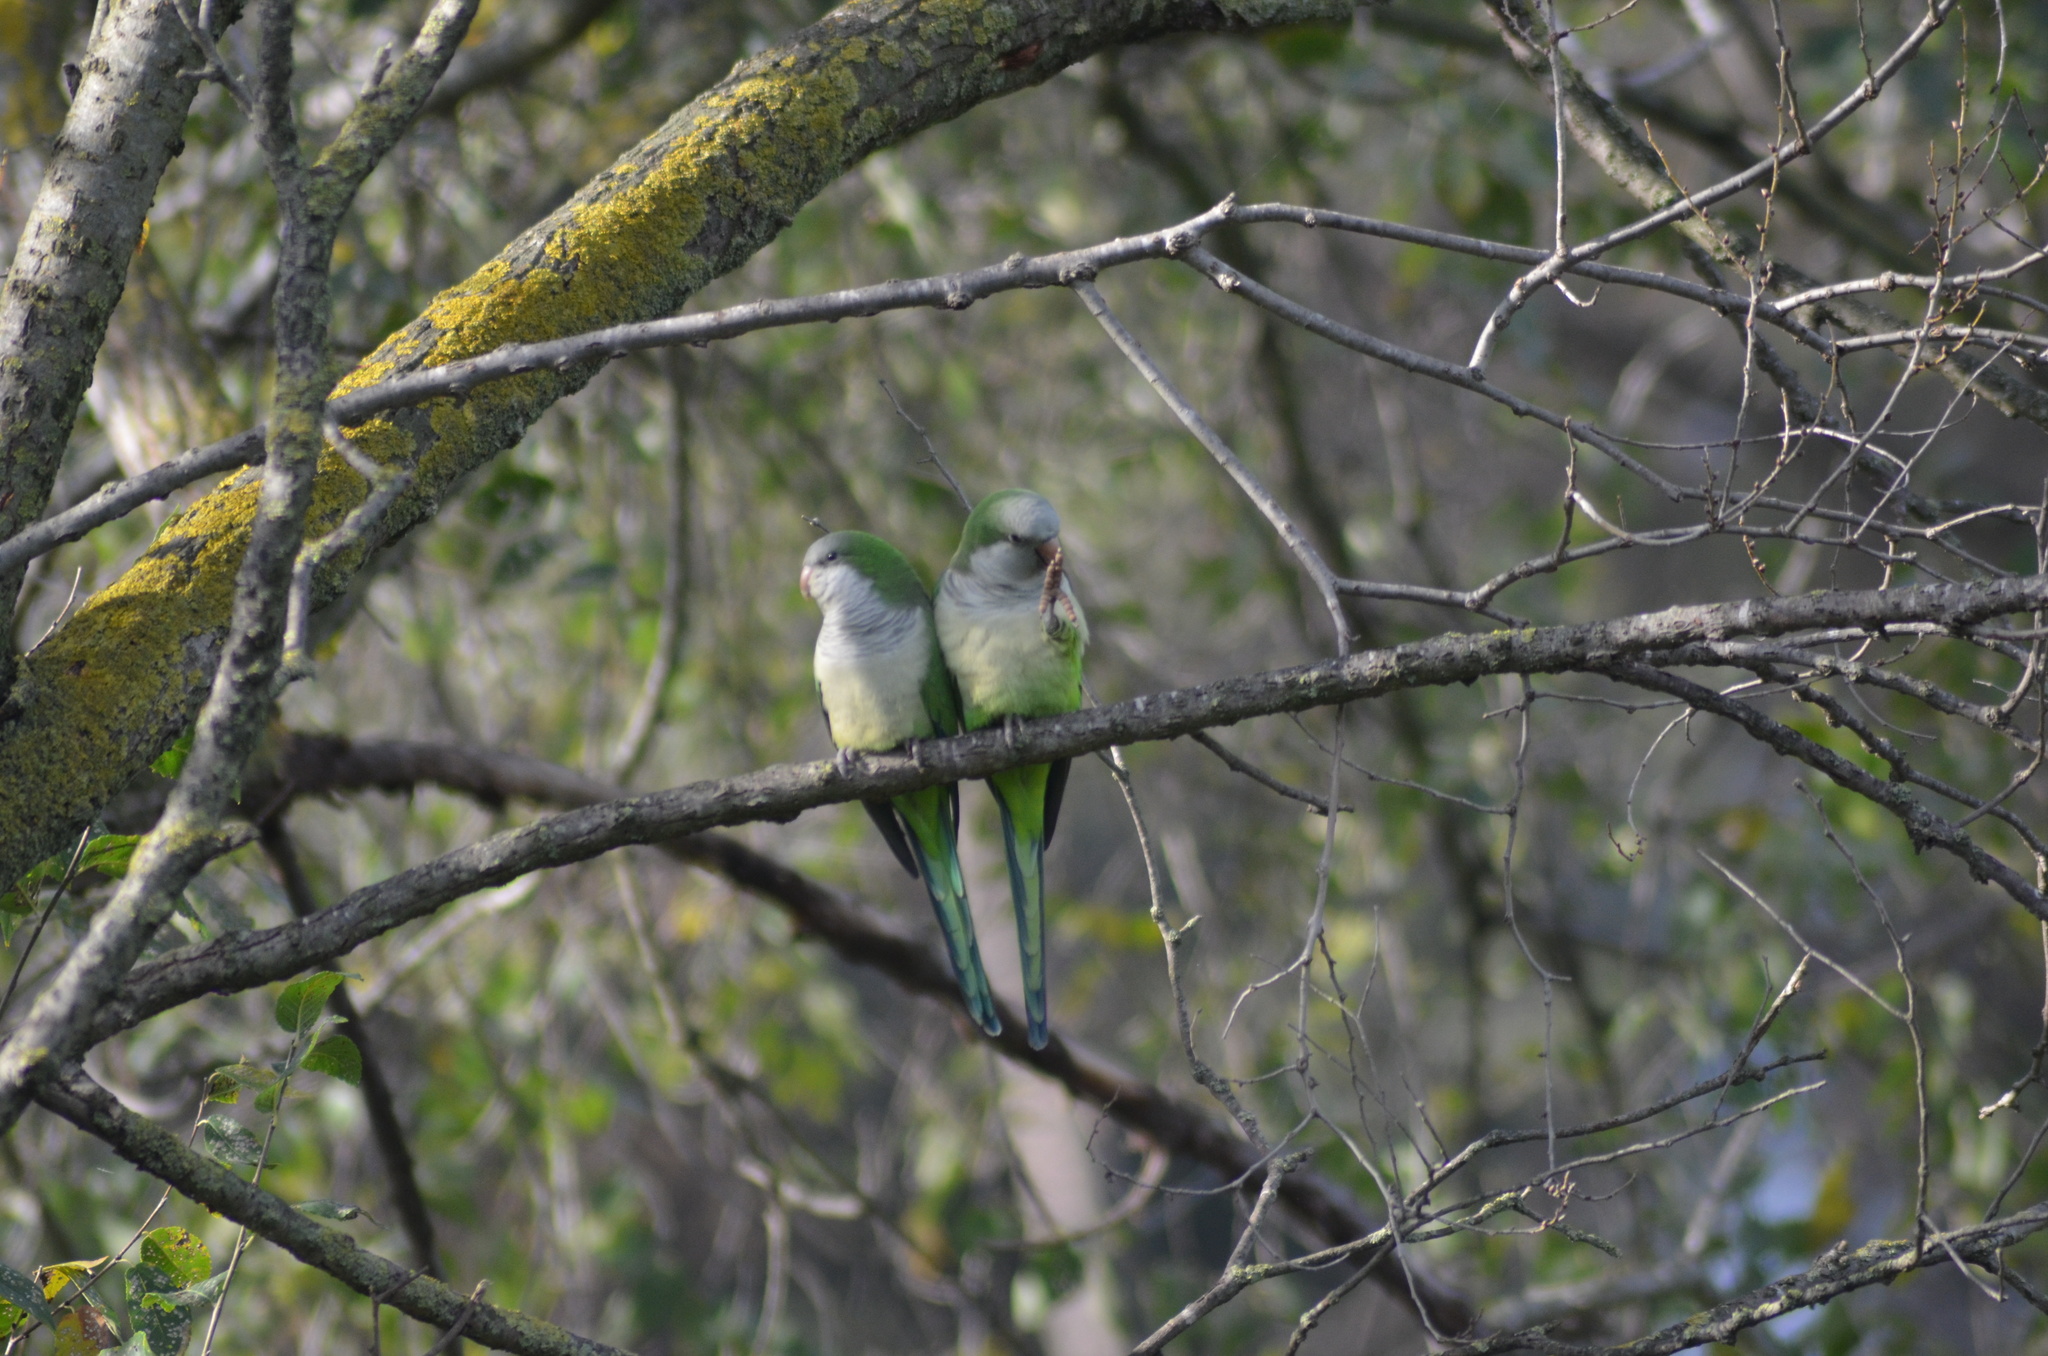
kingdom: Animalia
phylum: Chordata
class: Aves
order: Psittaciformes
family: Psittacidae
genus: Myiopsitta
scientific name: Myiopsitta monachus
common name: Monk parakeet
